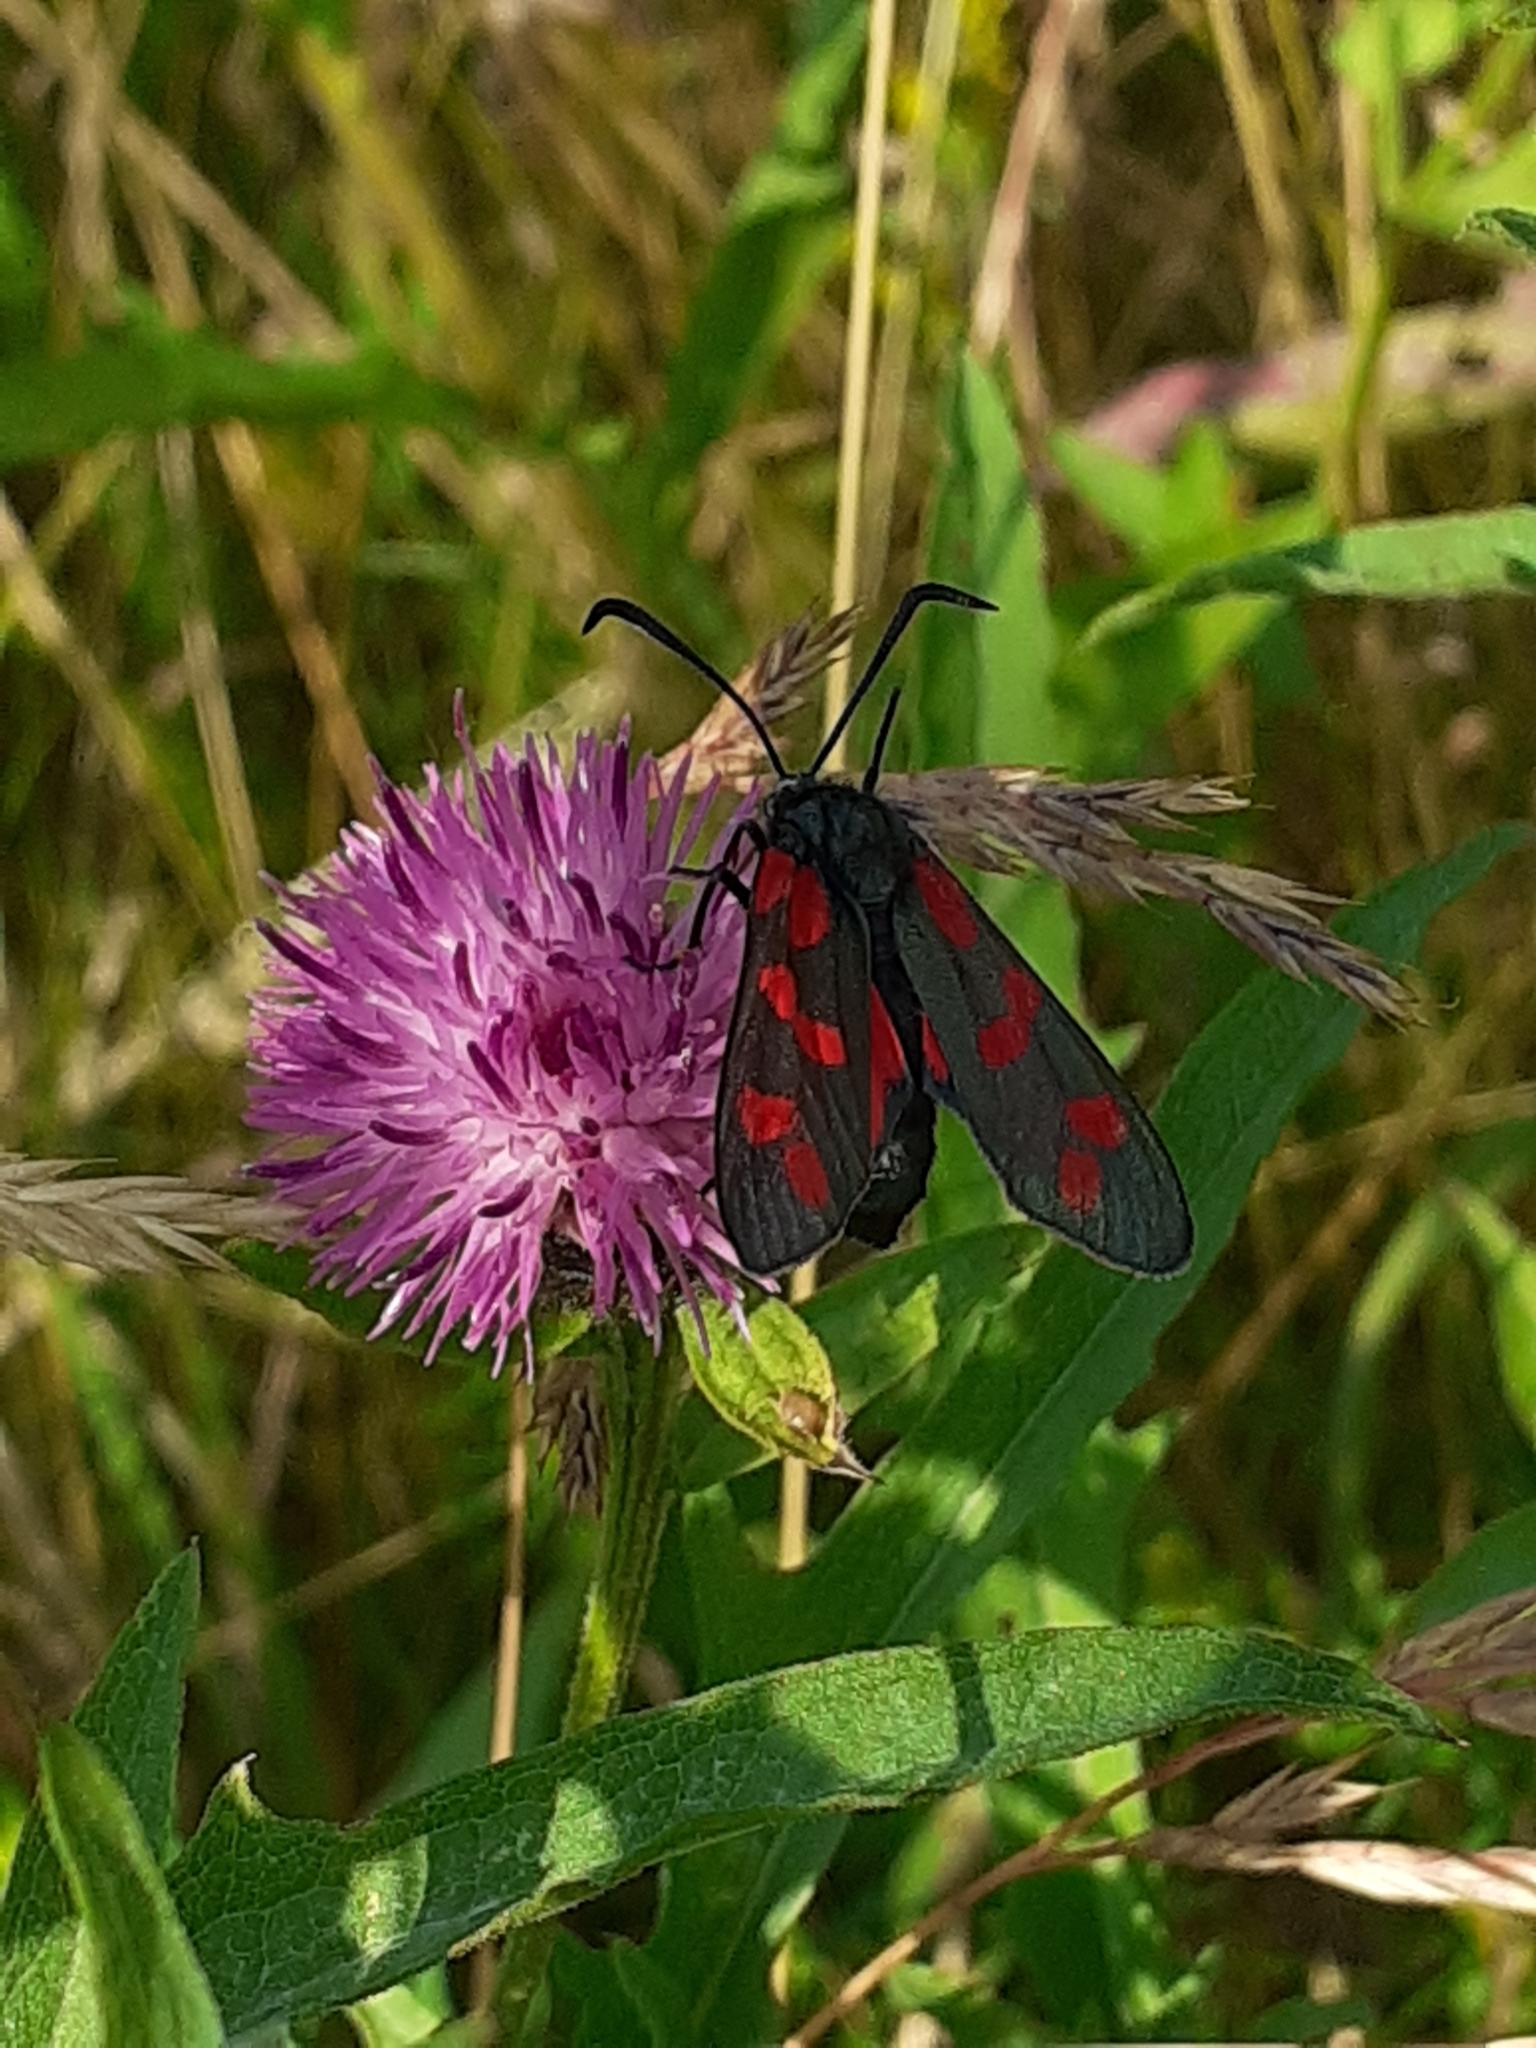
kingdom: Animalia
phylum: Arthropoda
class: Insecta
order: Lepidoptera
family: Zygaenidae
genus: Zygaena
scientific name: Zygaena filipendulae
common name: Six-spot burnet
